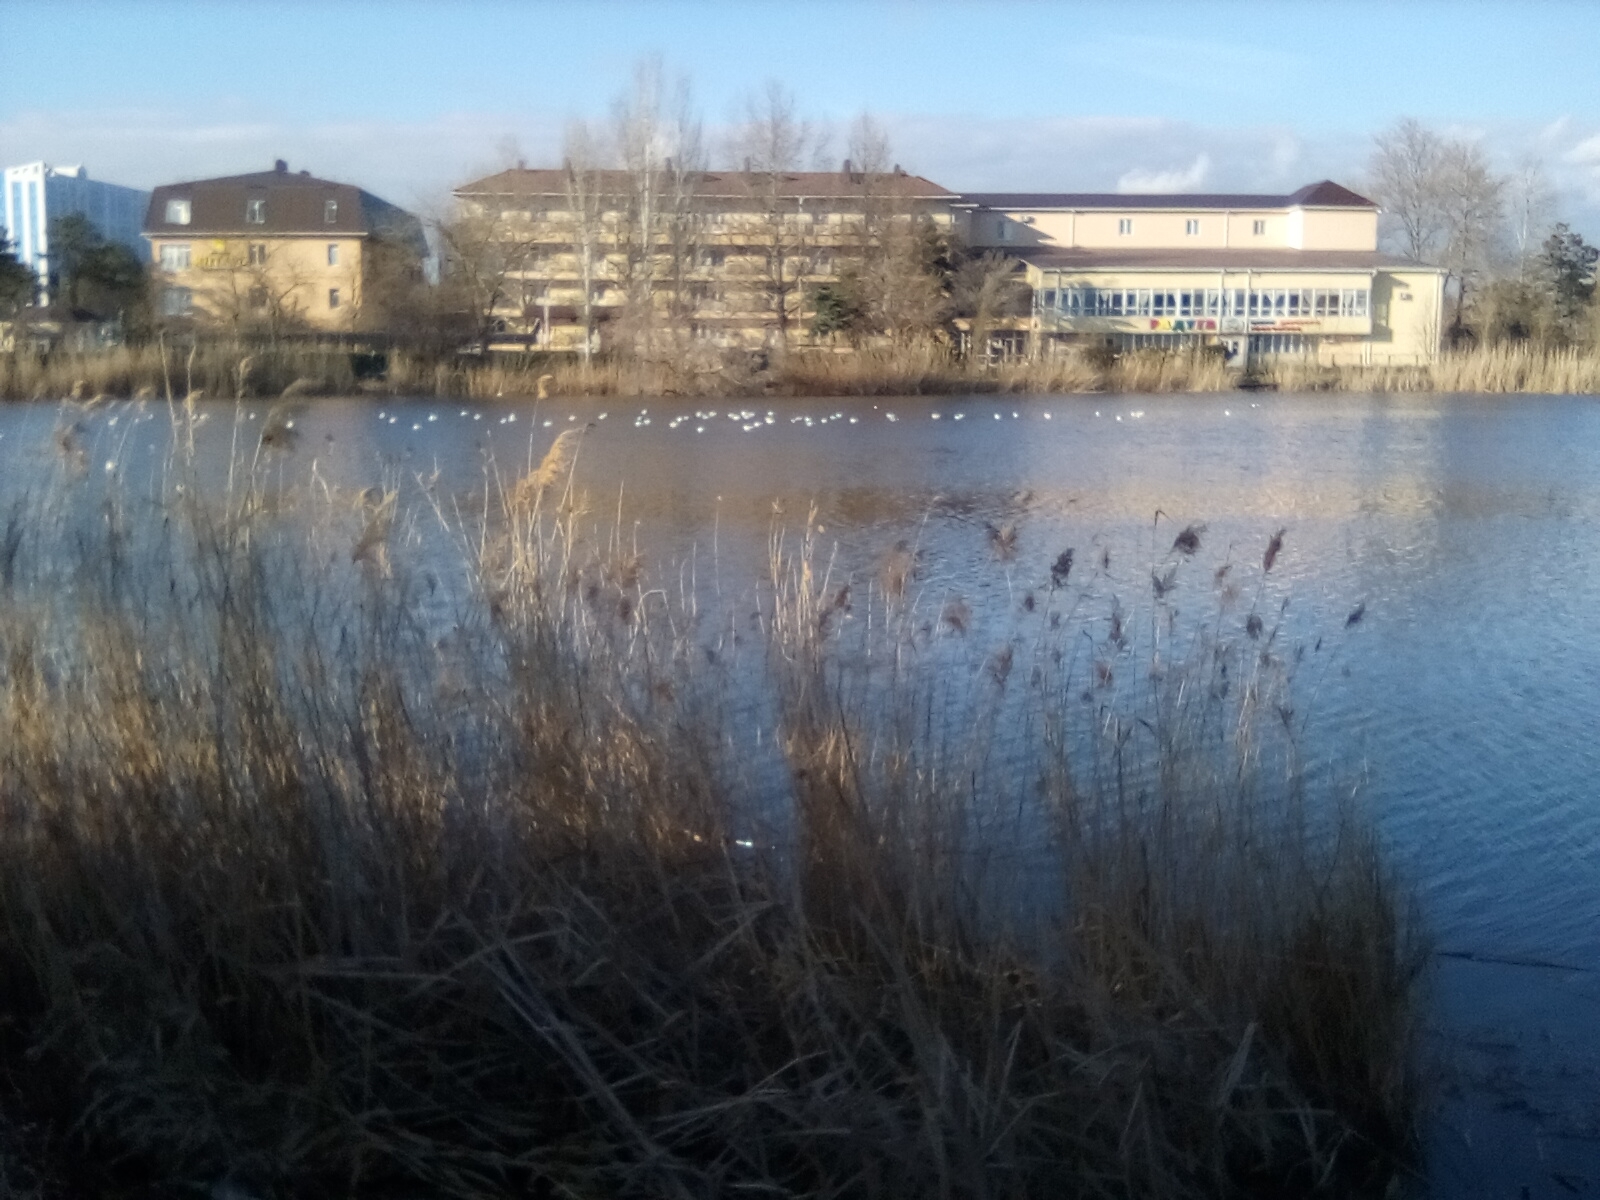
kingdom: Plantae
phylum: Tracheophyta
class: Liliopsida
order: Poales
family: Poaceae
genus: Phragmites
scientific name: Phragmites australis
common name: Common reed
